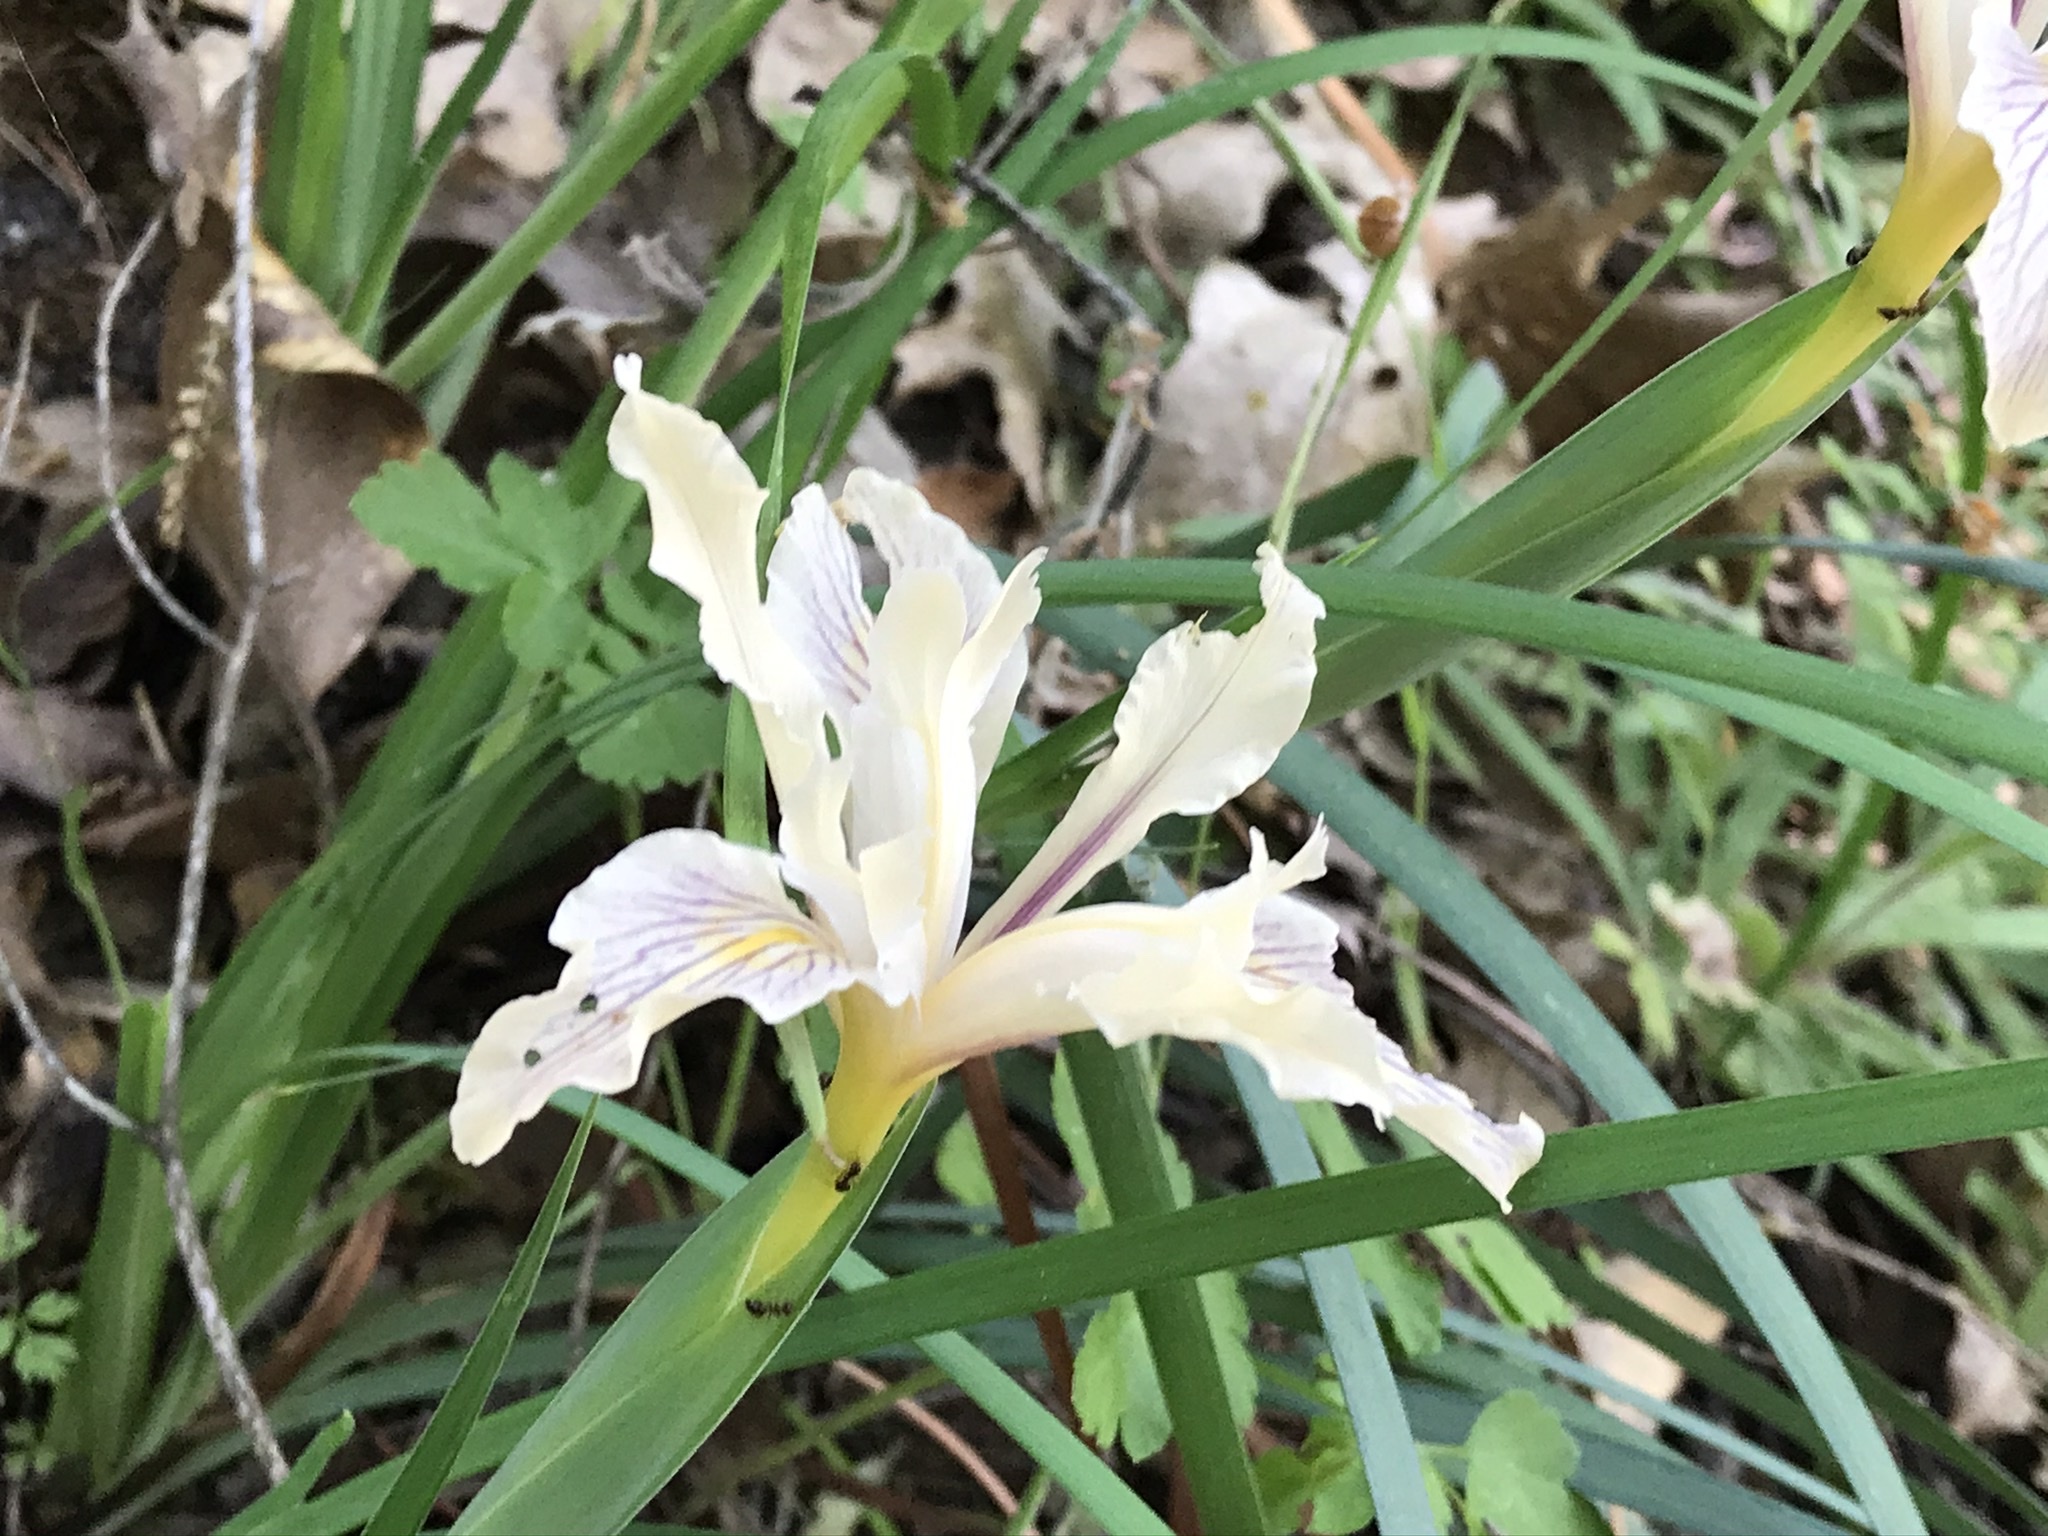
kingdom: Plantae
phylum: Tracheophyta
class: Liliopsida
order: Asparagales
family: Iridaceae
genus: Iris
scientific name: Iris fernaldii
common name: Fernald's iris
